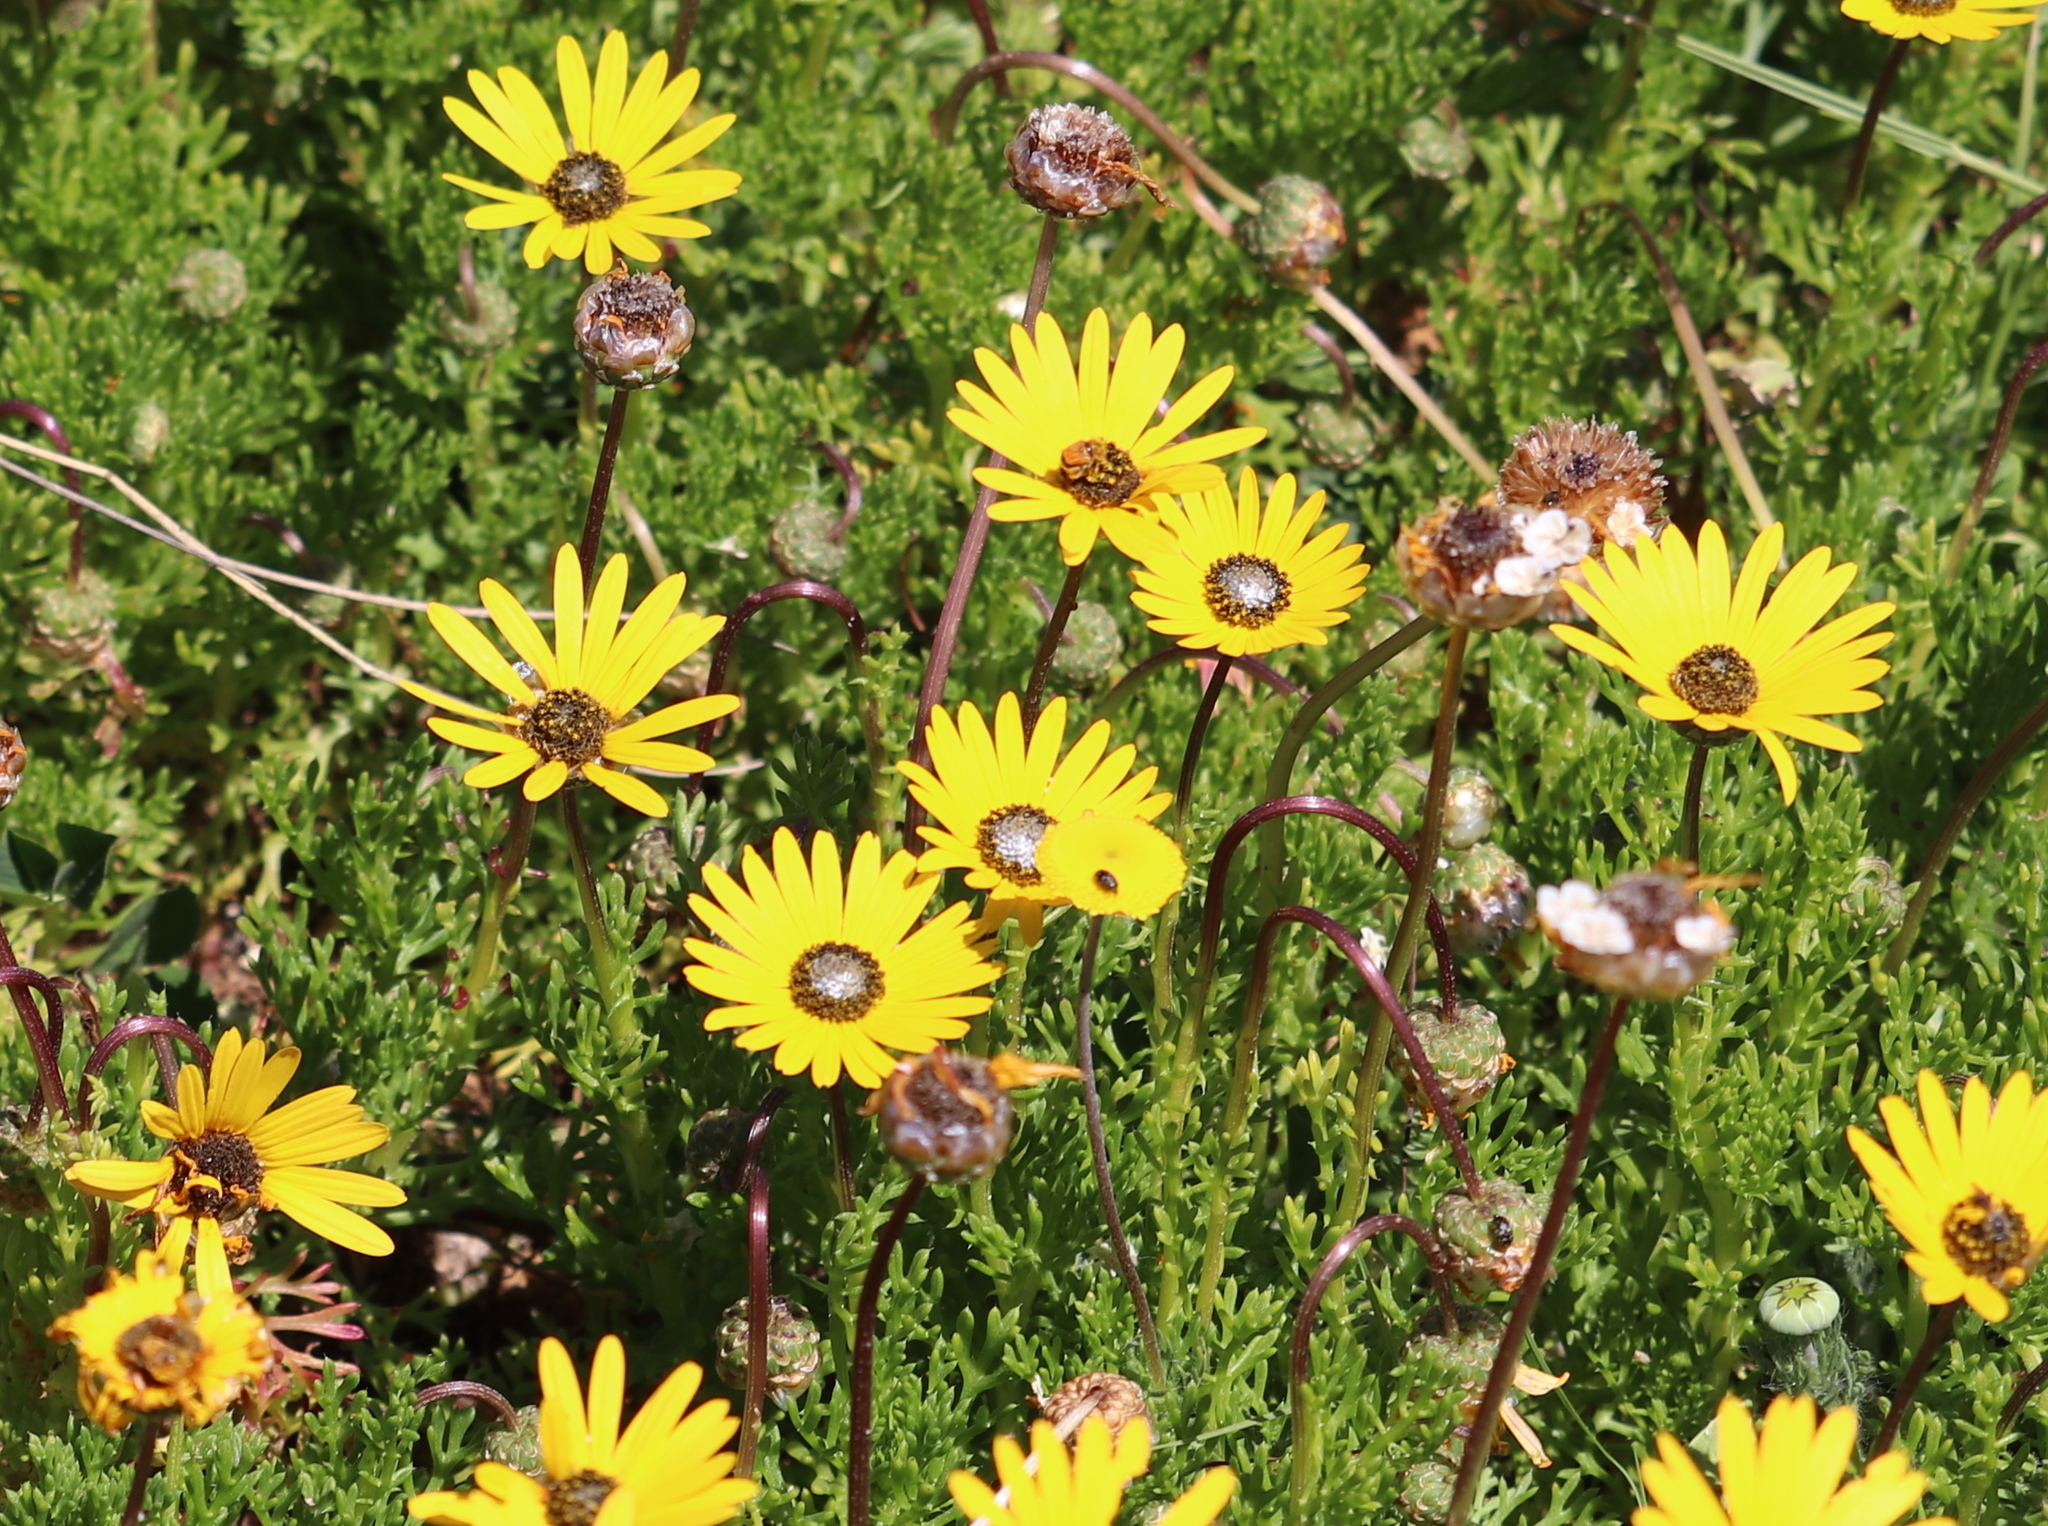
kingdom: Plantae
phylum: Tracheophyta
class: Magnoliopsida
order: Asterales
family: Asteraceae
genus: Ursinia
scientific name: Ursinia anthemoides
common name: Ursinia
